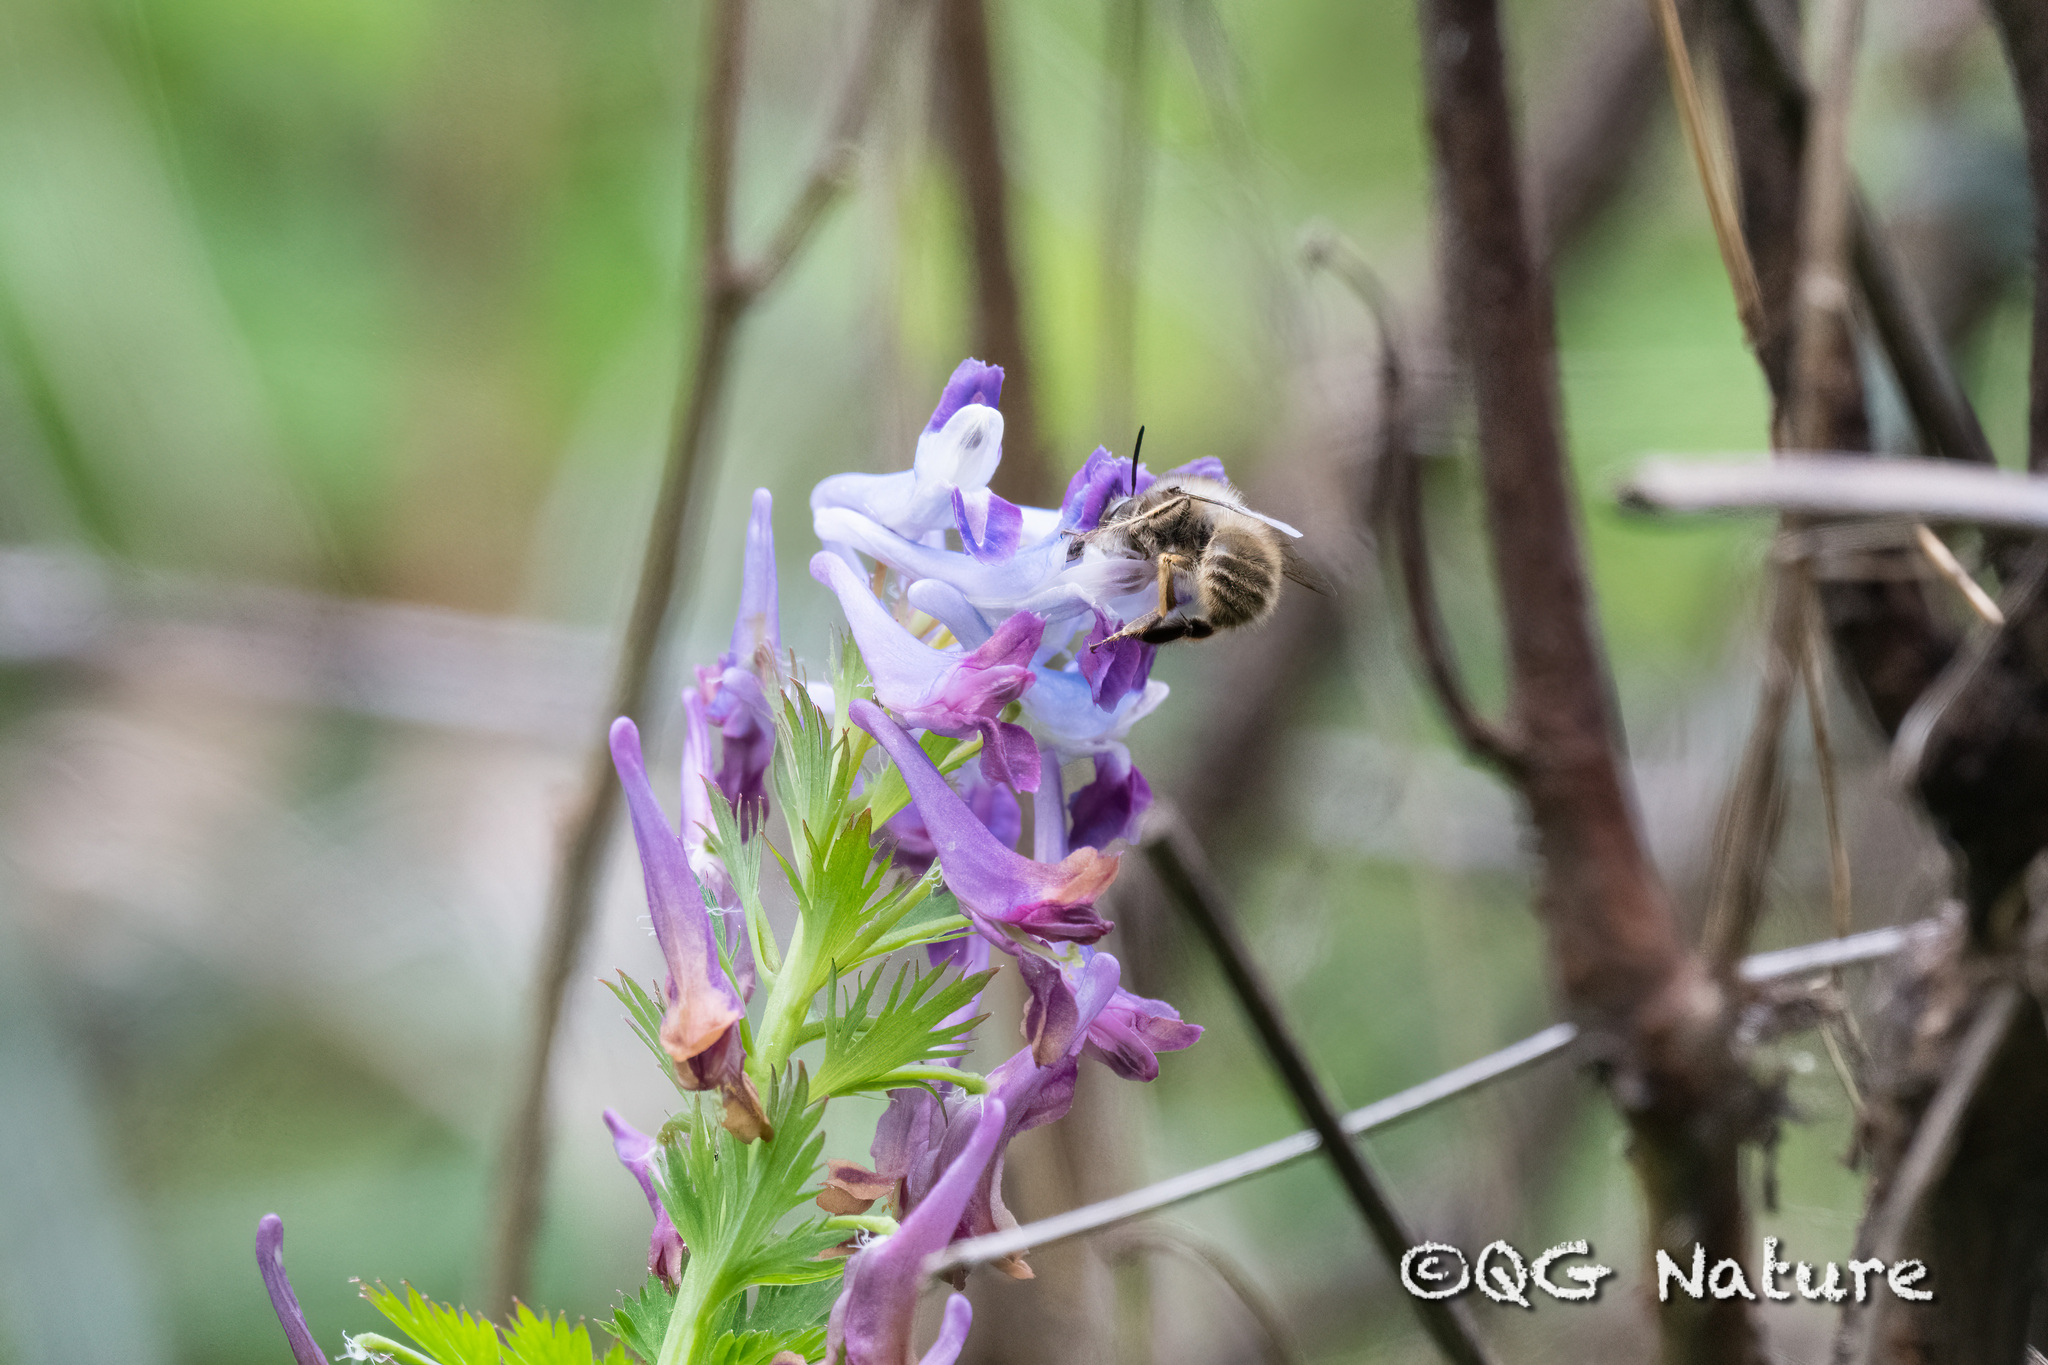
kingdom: Animalia
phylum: Arthropoda
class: Insecta
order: Hymenoptera
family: Apidae
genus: Anthophora
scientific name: Anthophora villosula
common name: Asian shaggy digger
